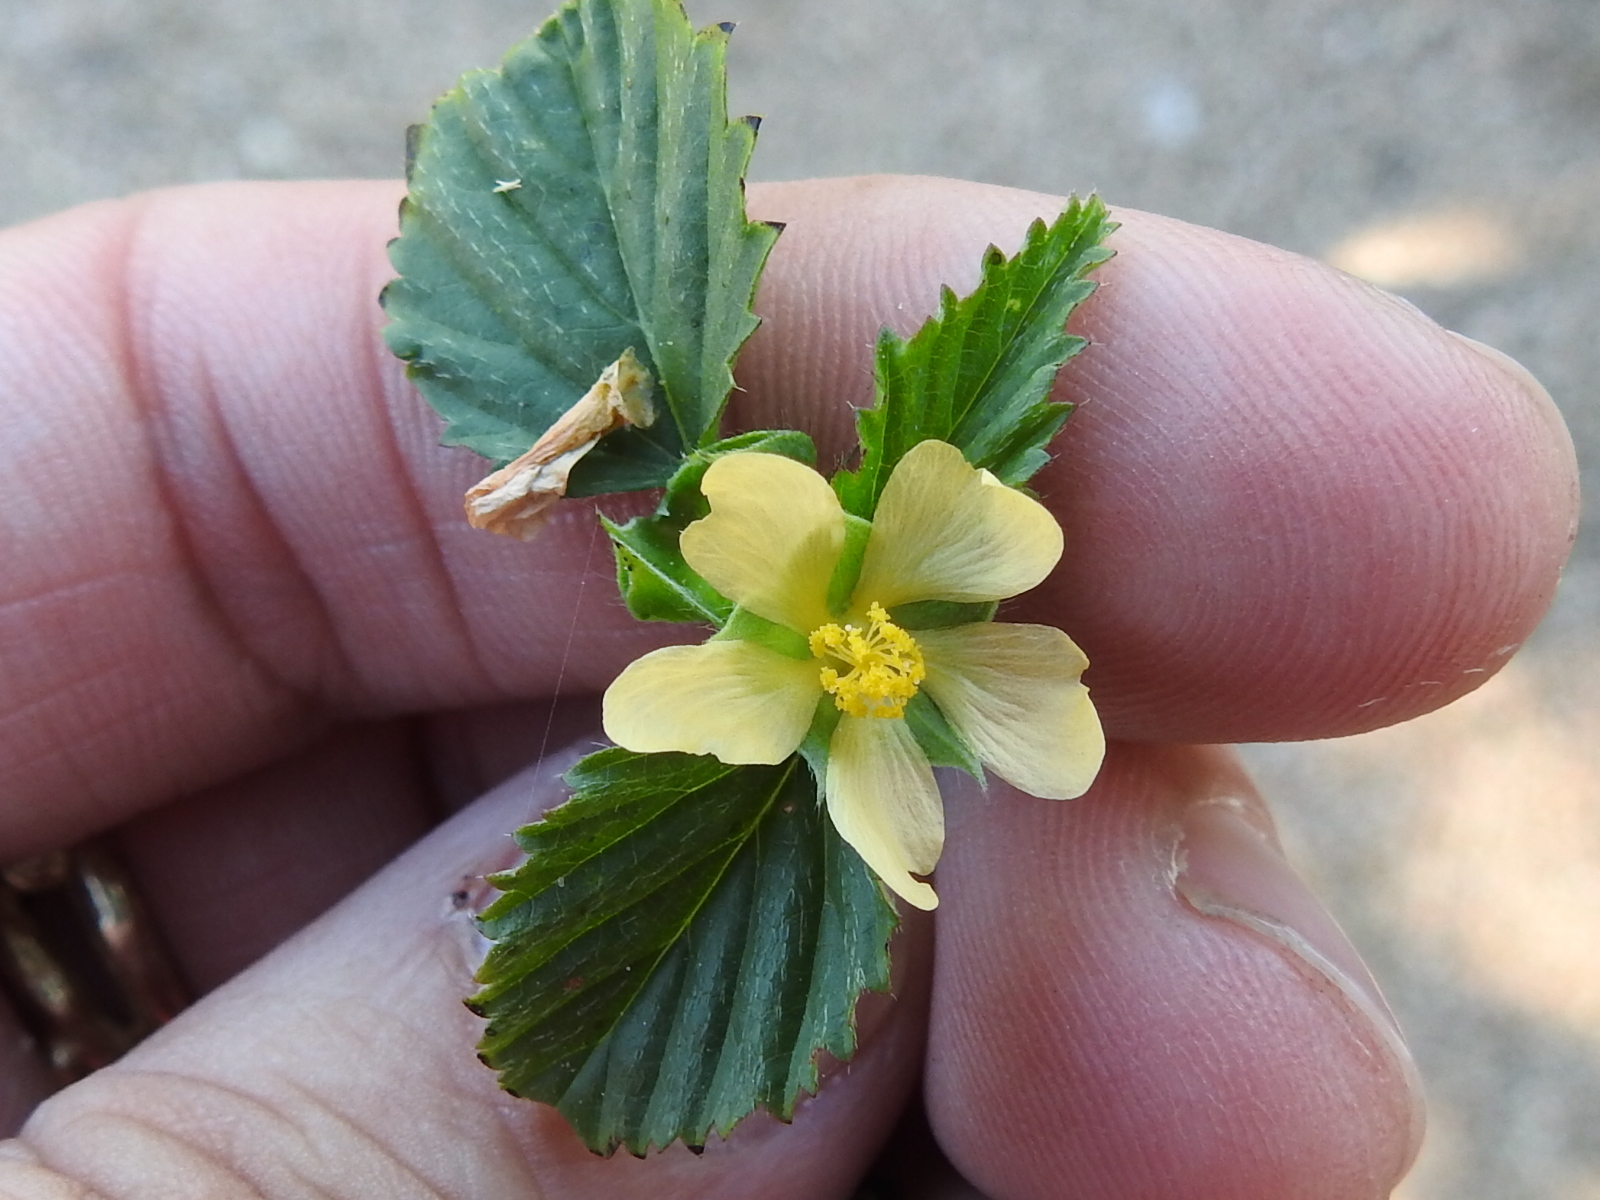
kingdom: Plantae
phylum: Tracheophyta
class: Magnoliopsida
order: Malvales
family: Malvaceae
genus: Malvastrum
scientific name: Malvastrum coromandelianum
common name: Threelobe false mallow
